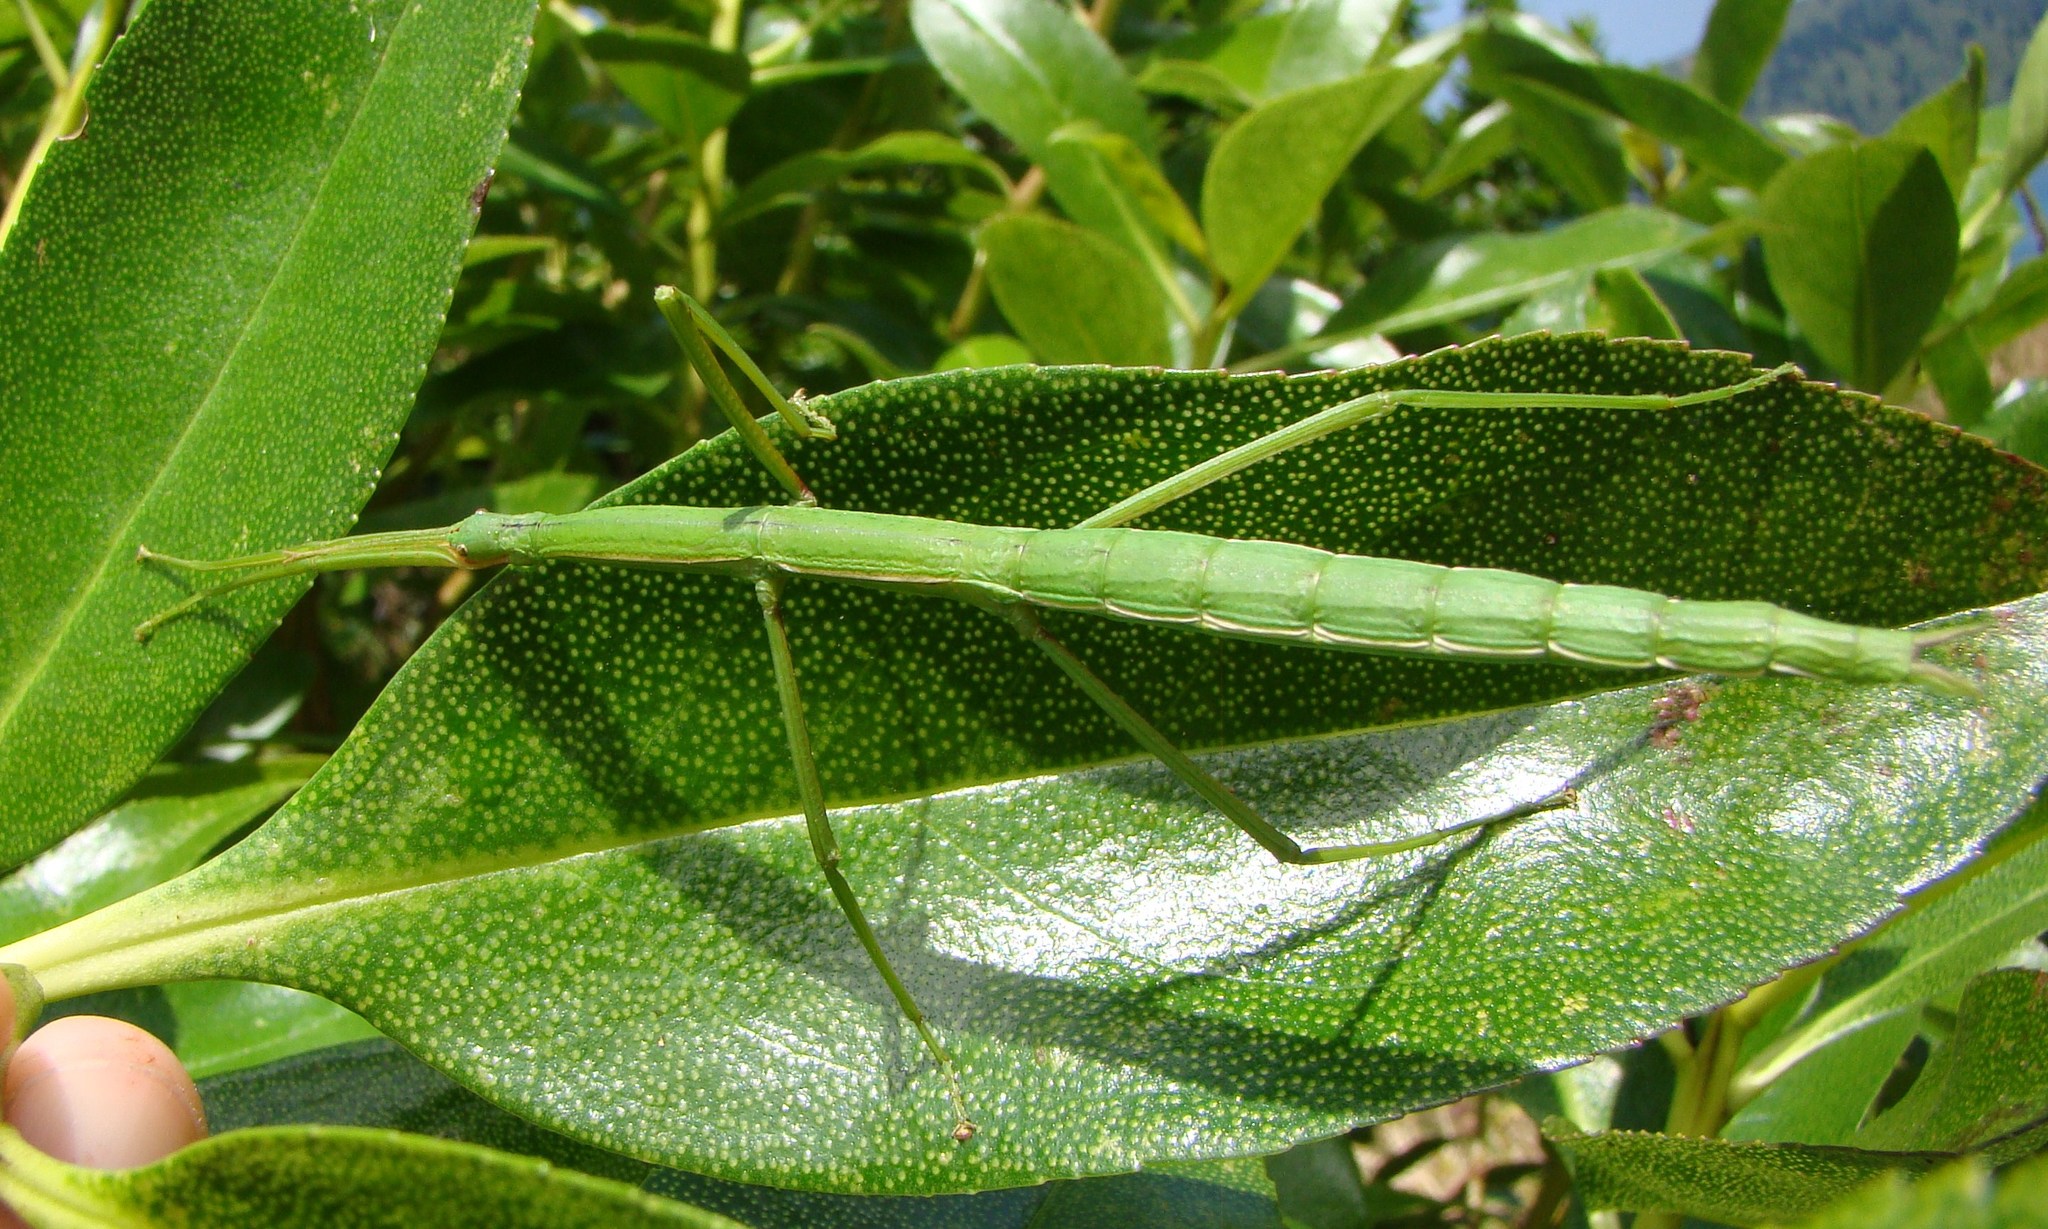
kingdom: Animalia
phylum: Arthropoda
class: Insecta
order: Phasmida
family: Phasmatidae
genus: Clitarchus
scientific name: Clitarchus hookeri
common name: Smooth stick insect
